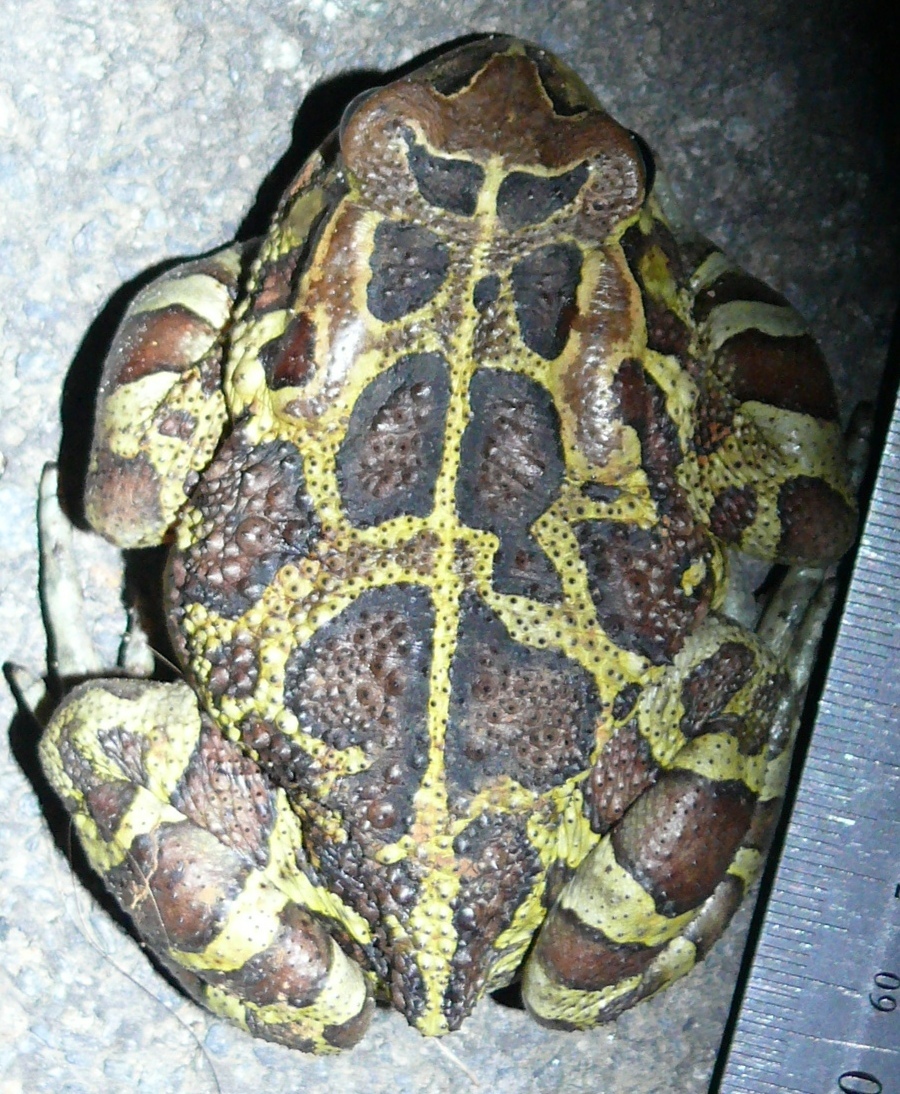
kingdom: Animalia
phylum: Chordata
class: Amphibia
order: Anura
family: Bufonidae
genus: Sclerophrys
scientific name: Sclerophrys pantherina
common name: Panther toad
